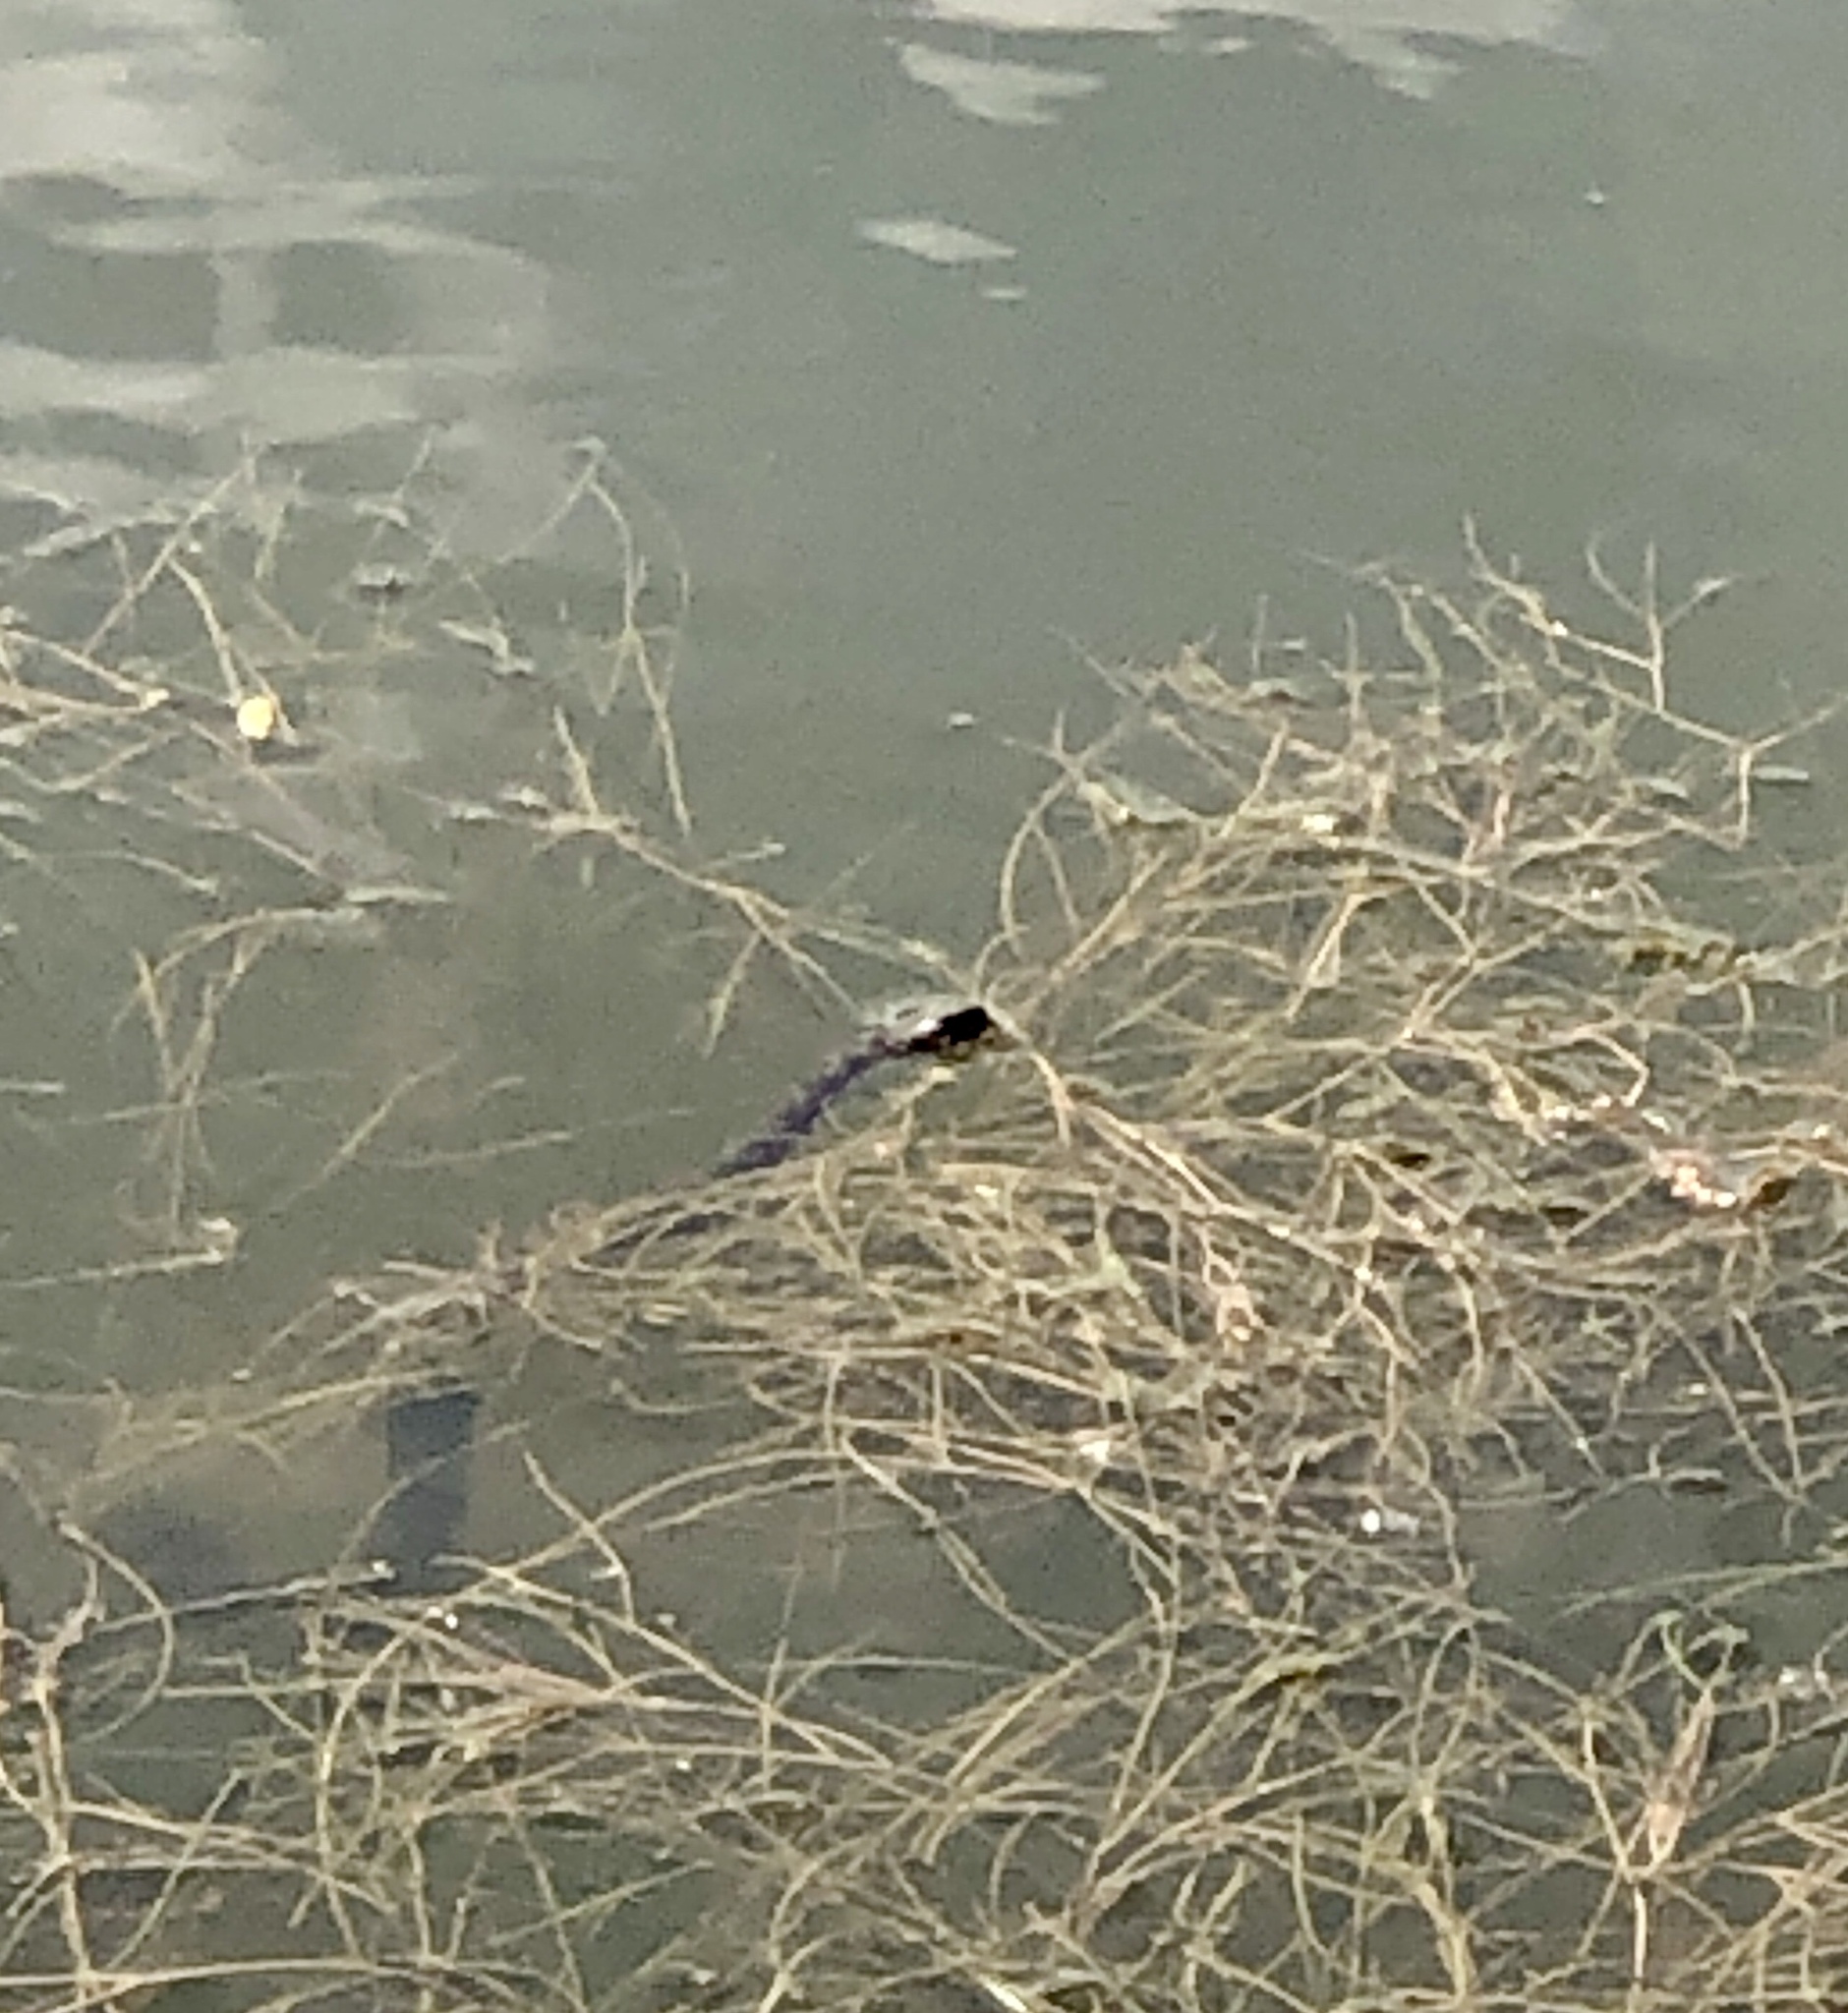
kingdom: Animalia
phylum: Chordata
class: Squamata
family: Colubridae
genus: Nerodia
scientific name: Nerodia sipedon
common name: Northern water snake
